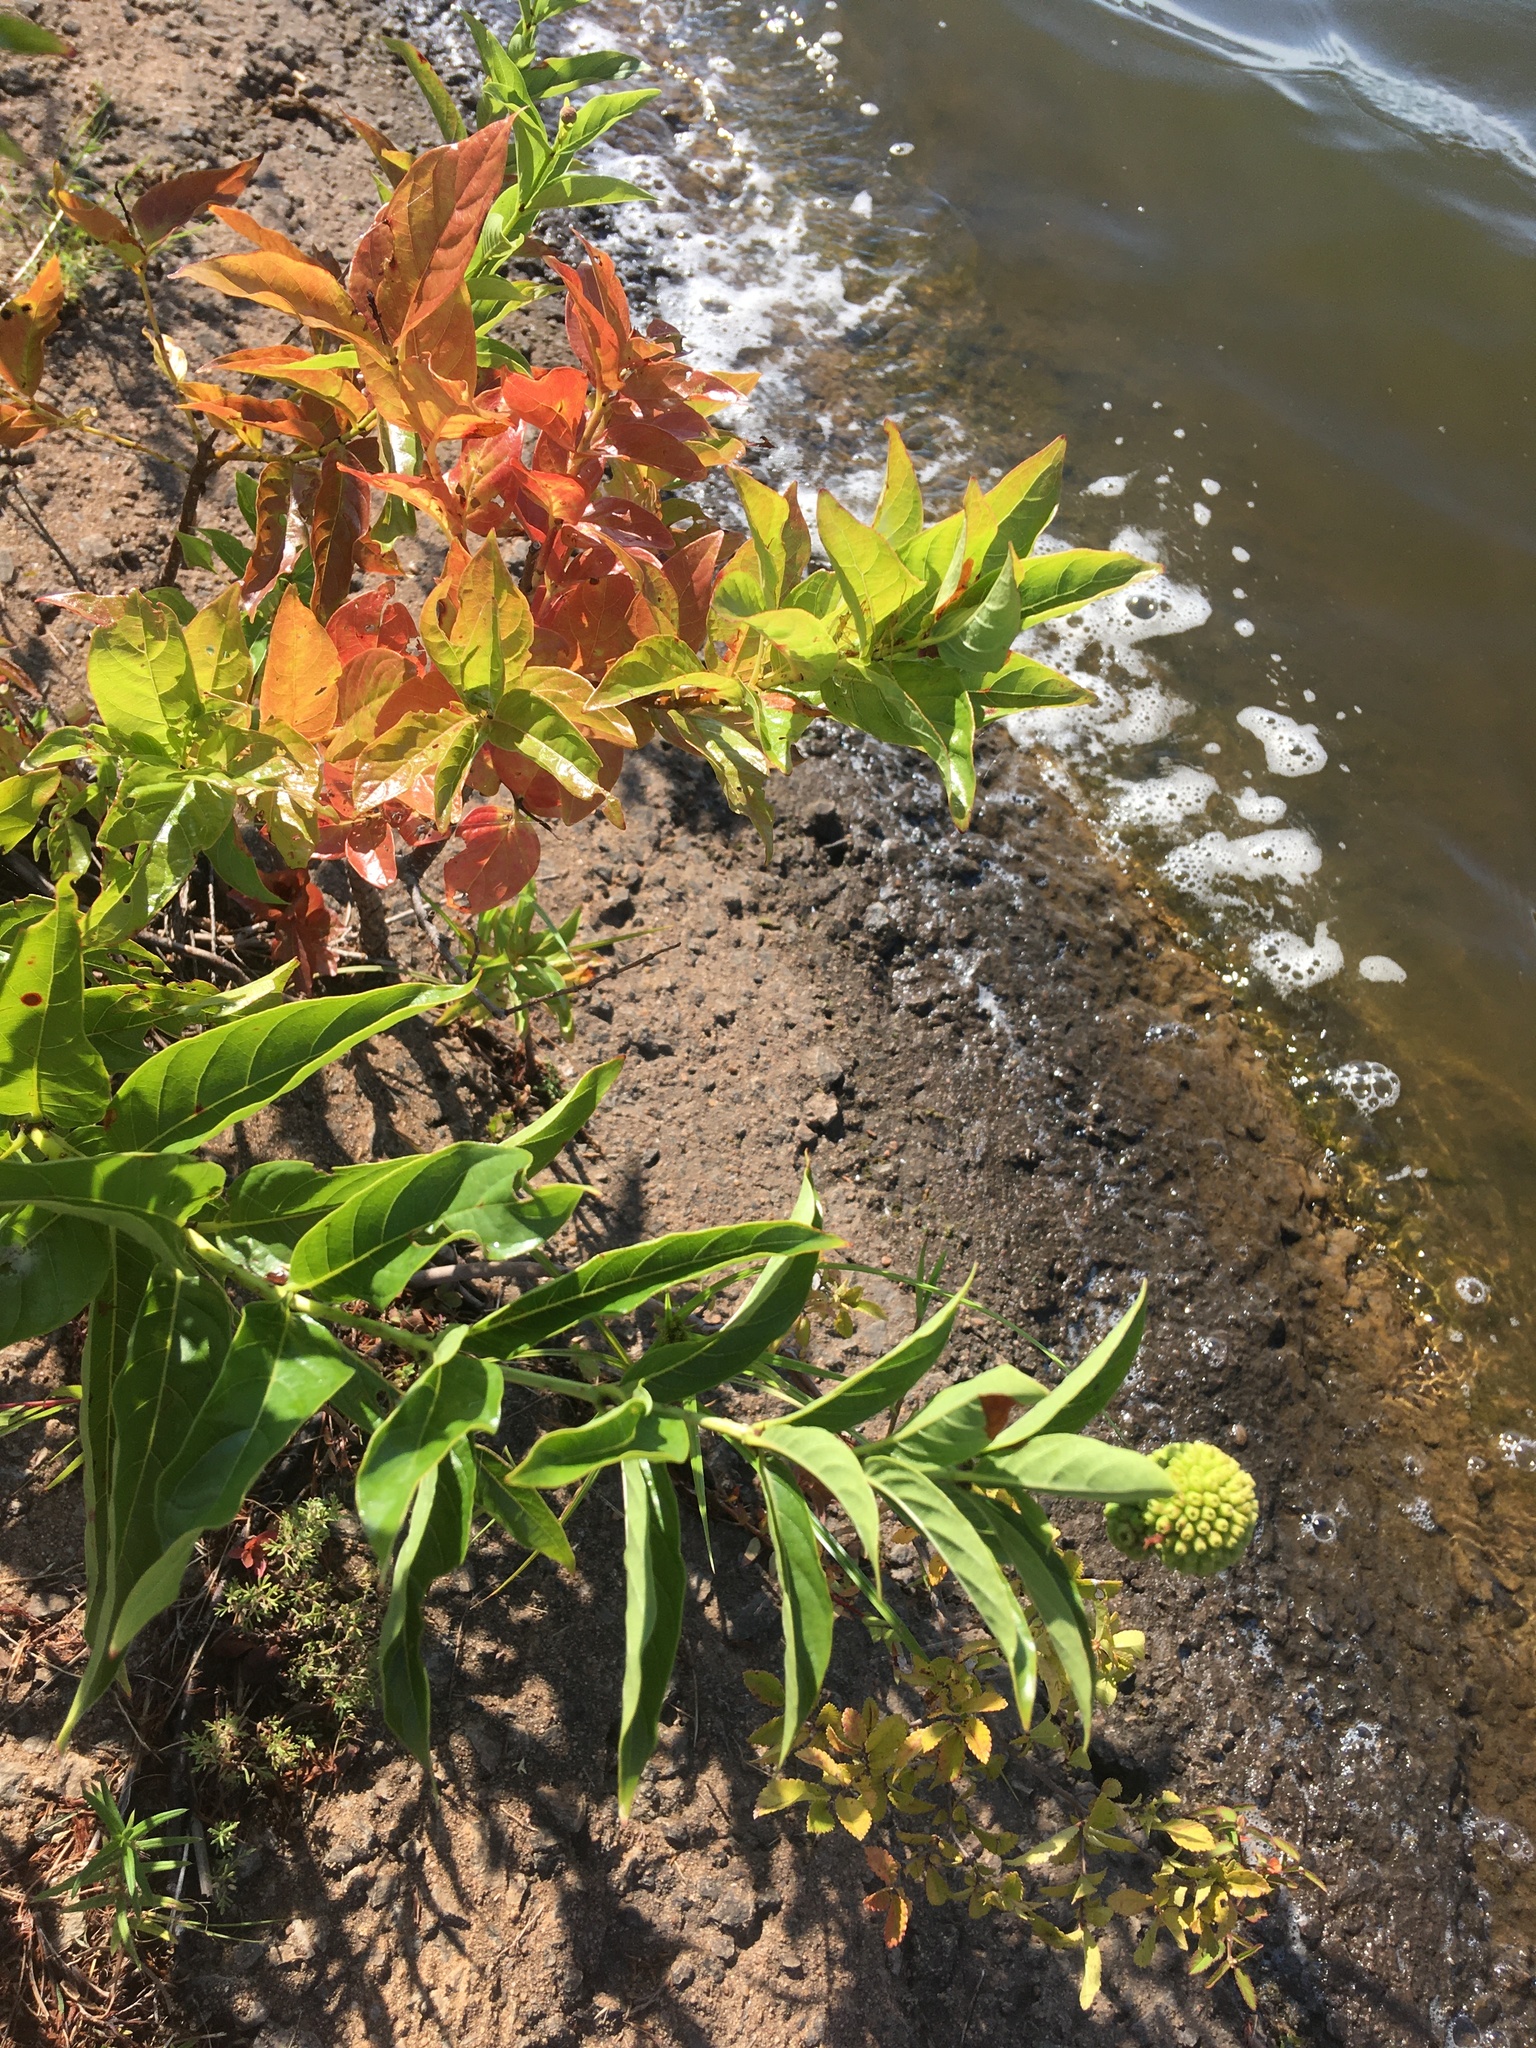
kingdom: Plantae
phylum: Tracheophyta
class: Magnoliopsida
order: Gentianales
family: Rubiaceae
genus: Cephalanthus
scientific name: Cephalanthus occidentalis
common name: Button-willow
